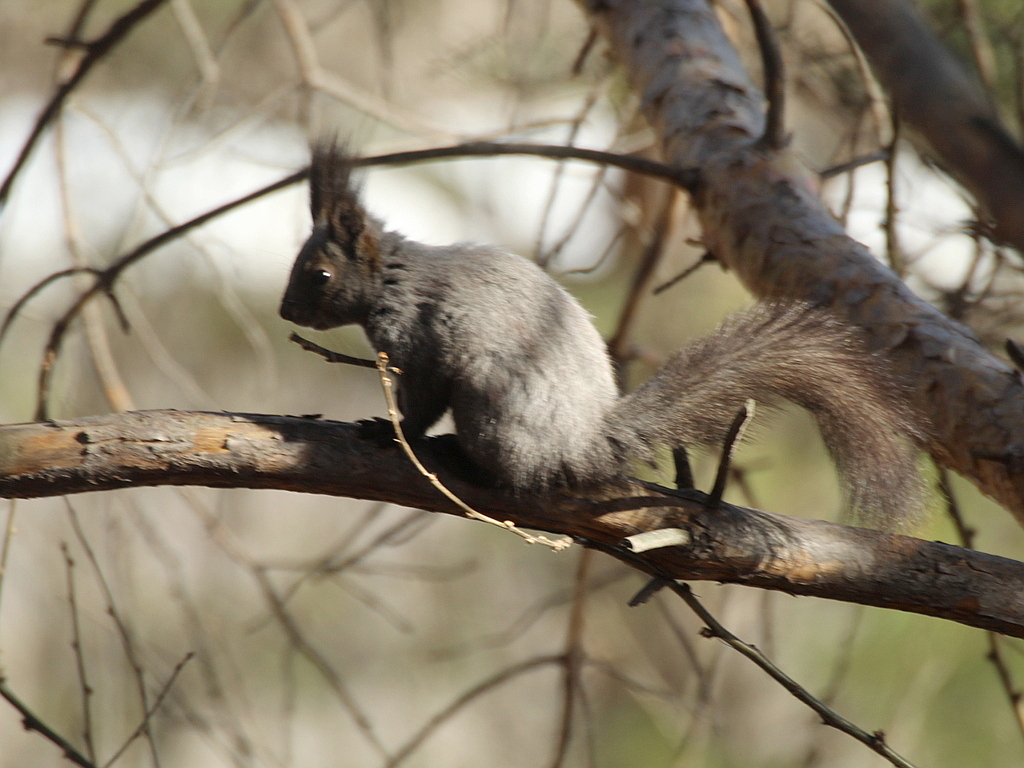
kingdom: Animalia
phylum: Chordata
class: Mammalia
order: Rodentia
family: Sciuridae
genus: Sciurus
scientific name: Sciurus vulgaris
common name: Eurasian red squirrel
